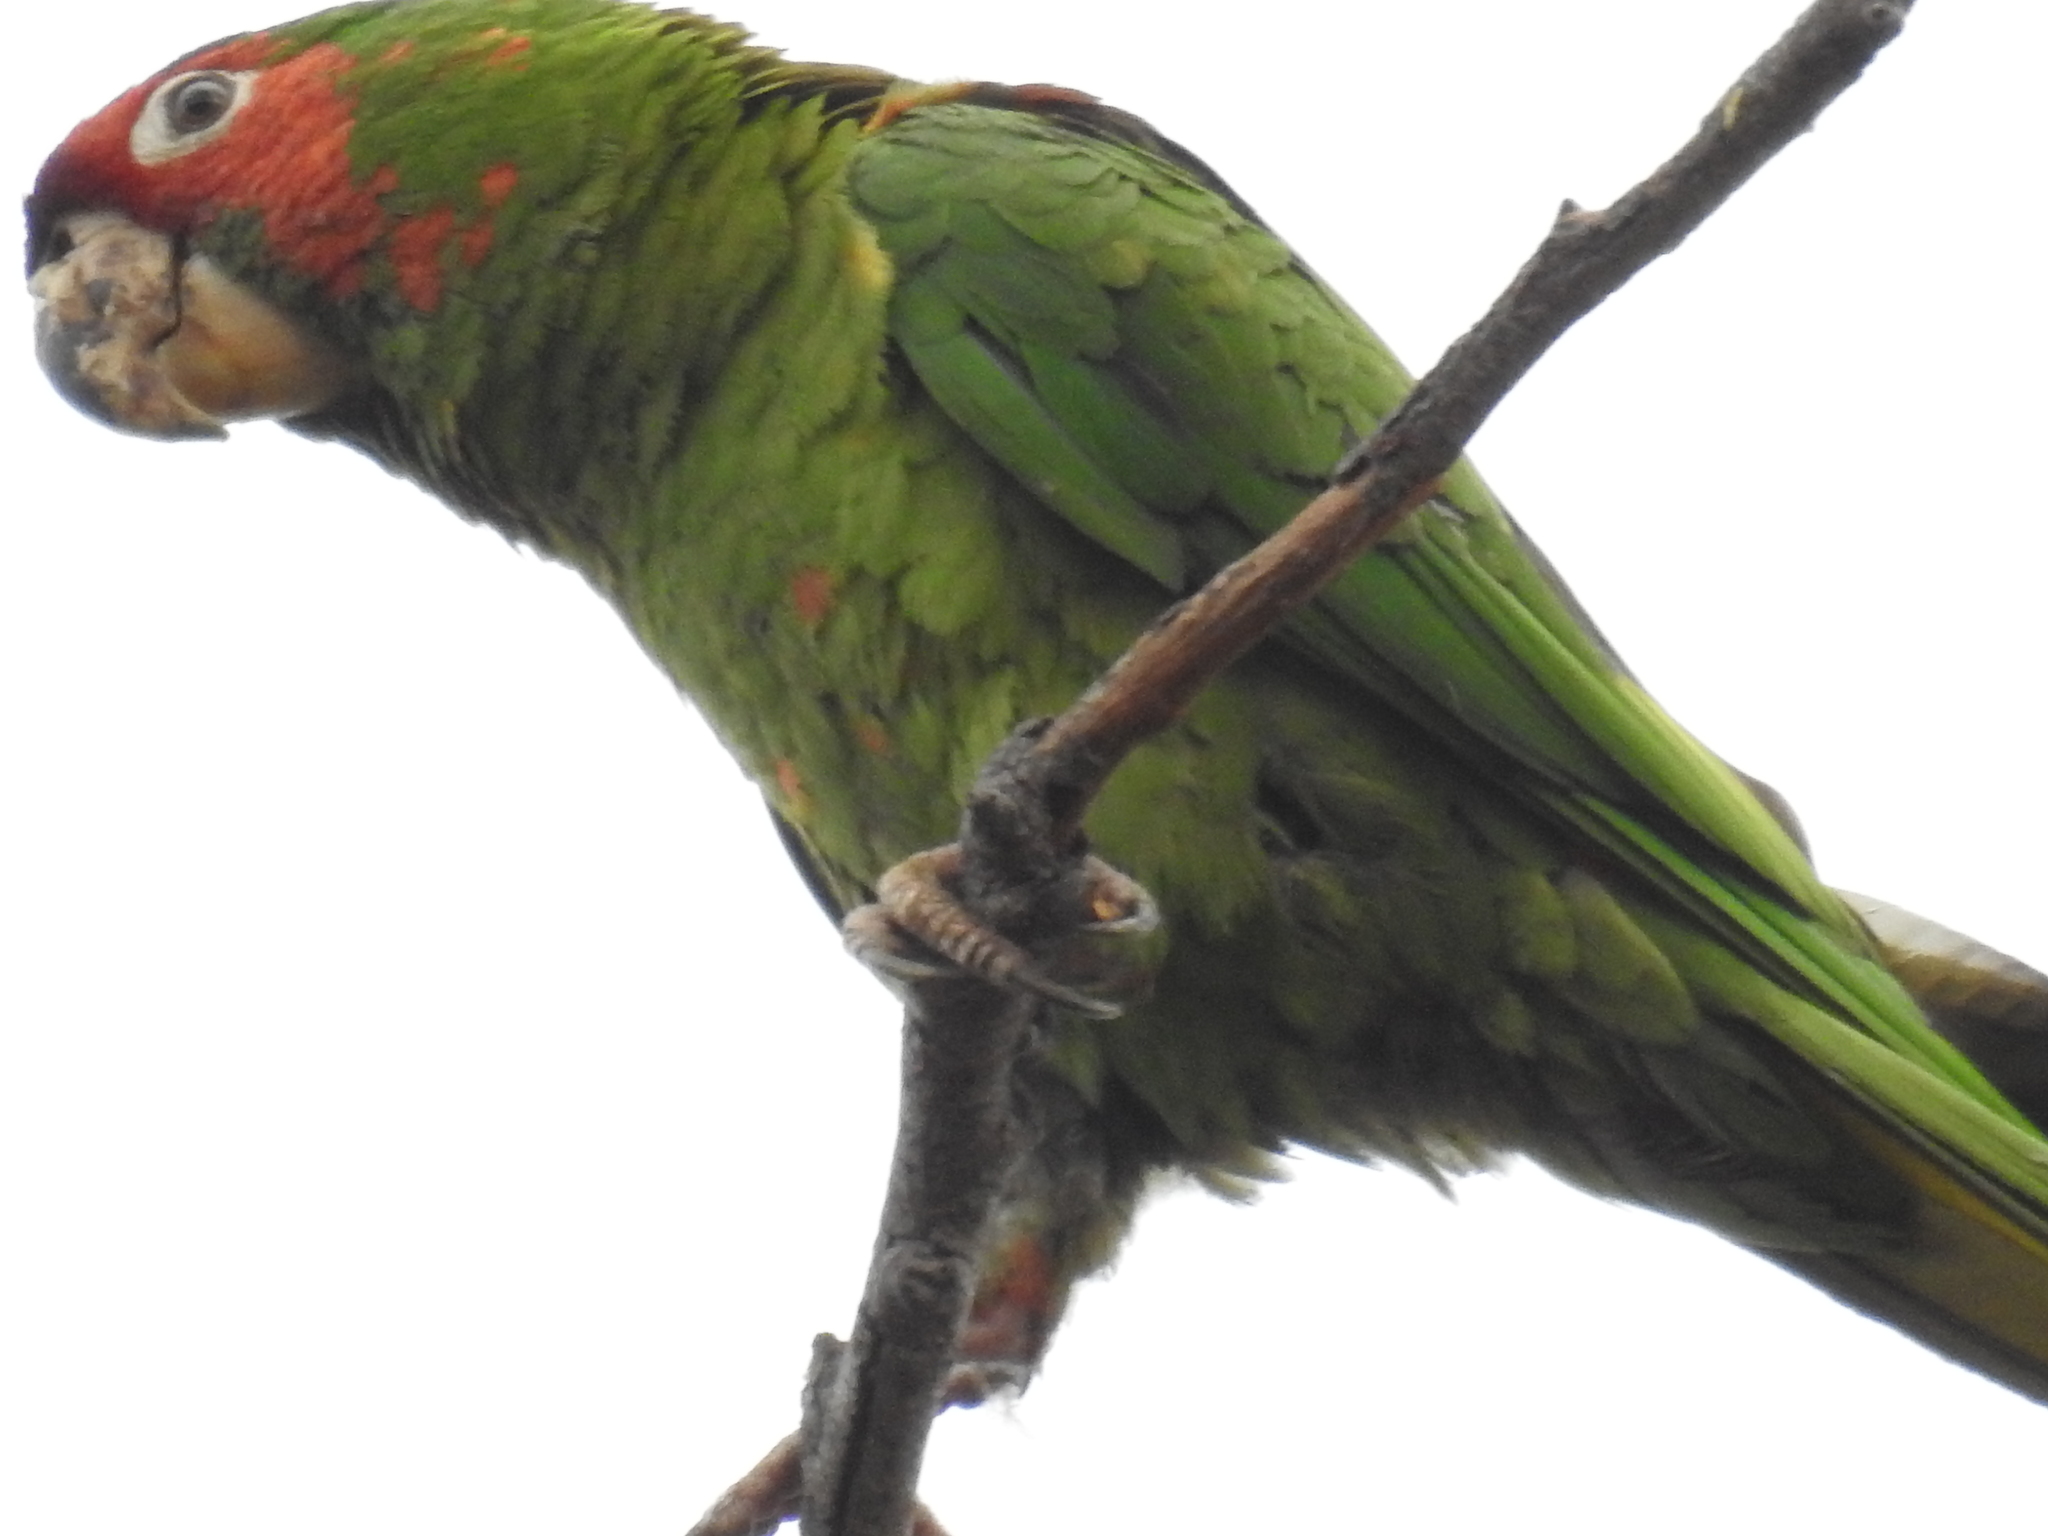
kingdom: Animalia
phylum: Chordata
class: Aves
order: Psittaciformes
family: Psittacidae
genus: Aratinga
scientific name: Aratinga mitrata
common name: Mitred parakeet
